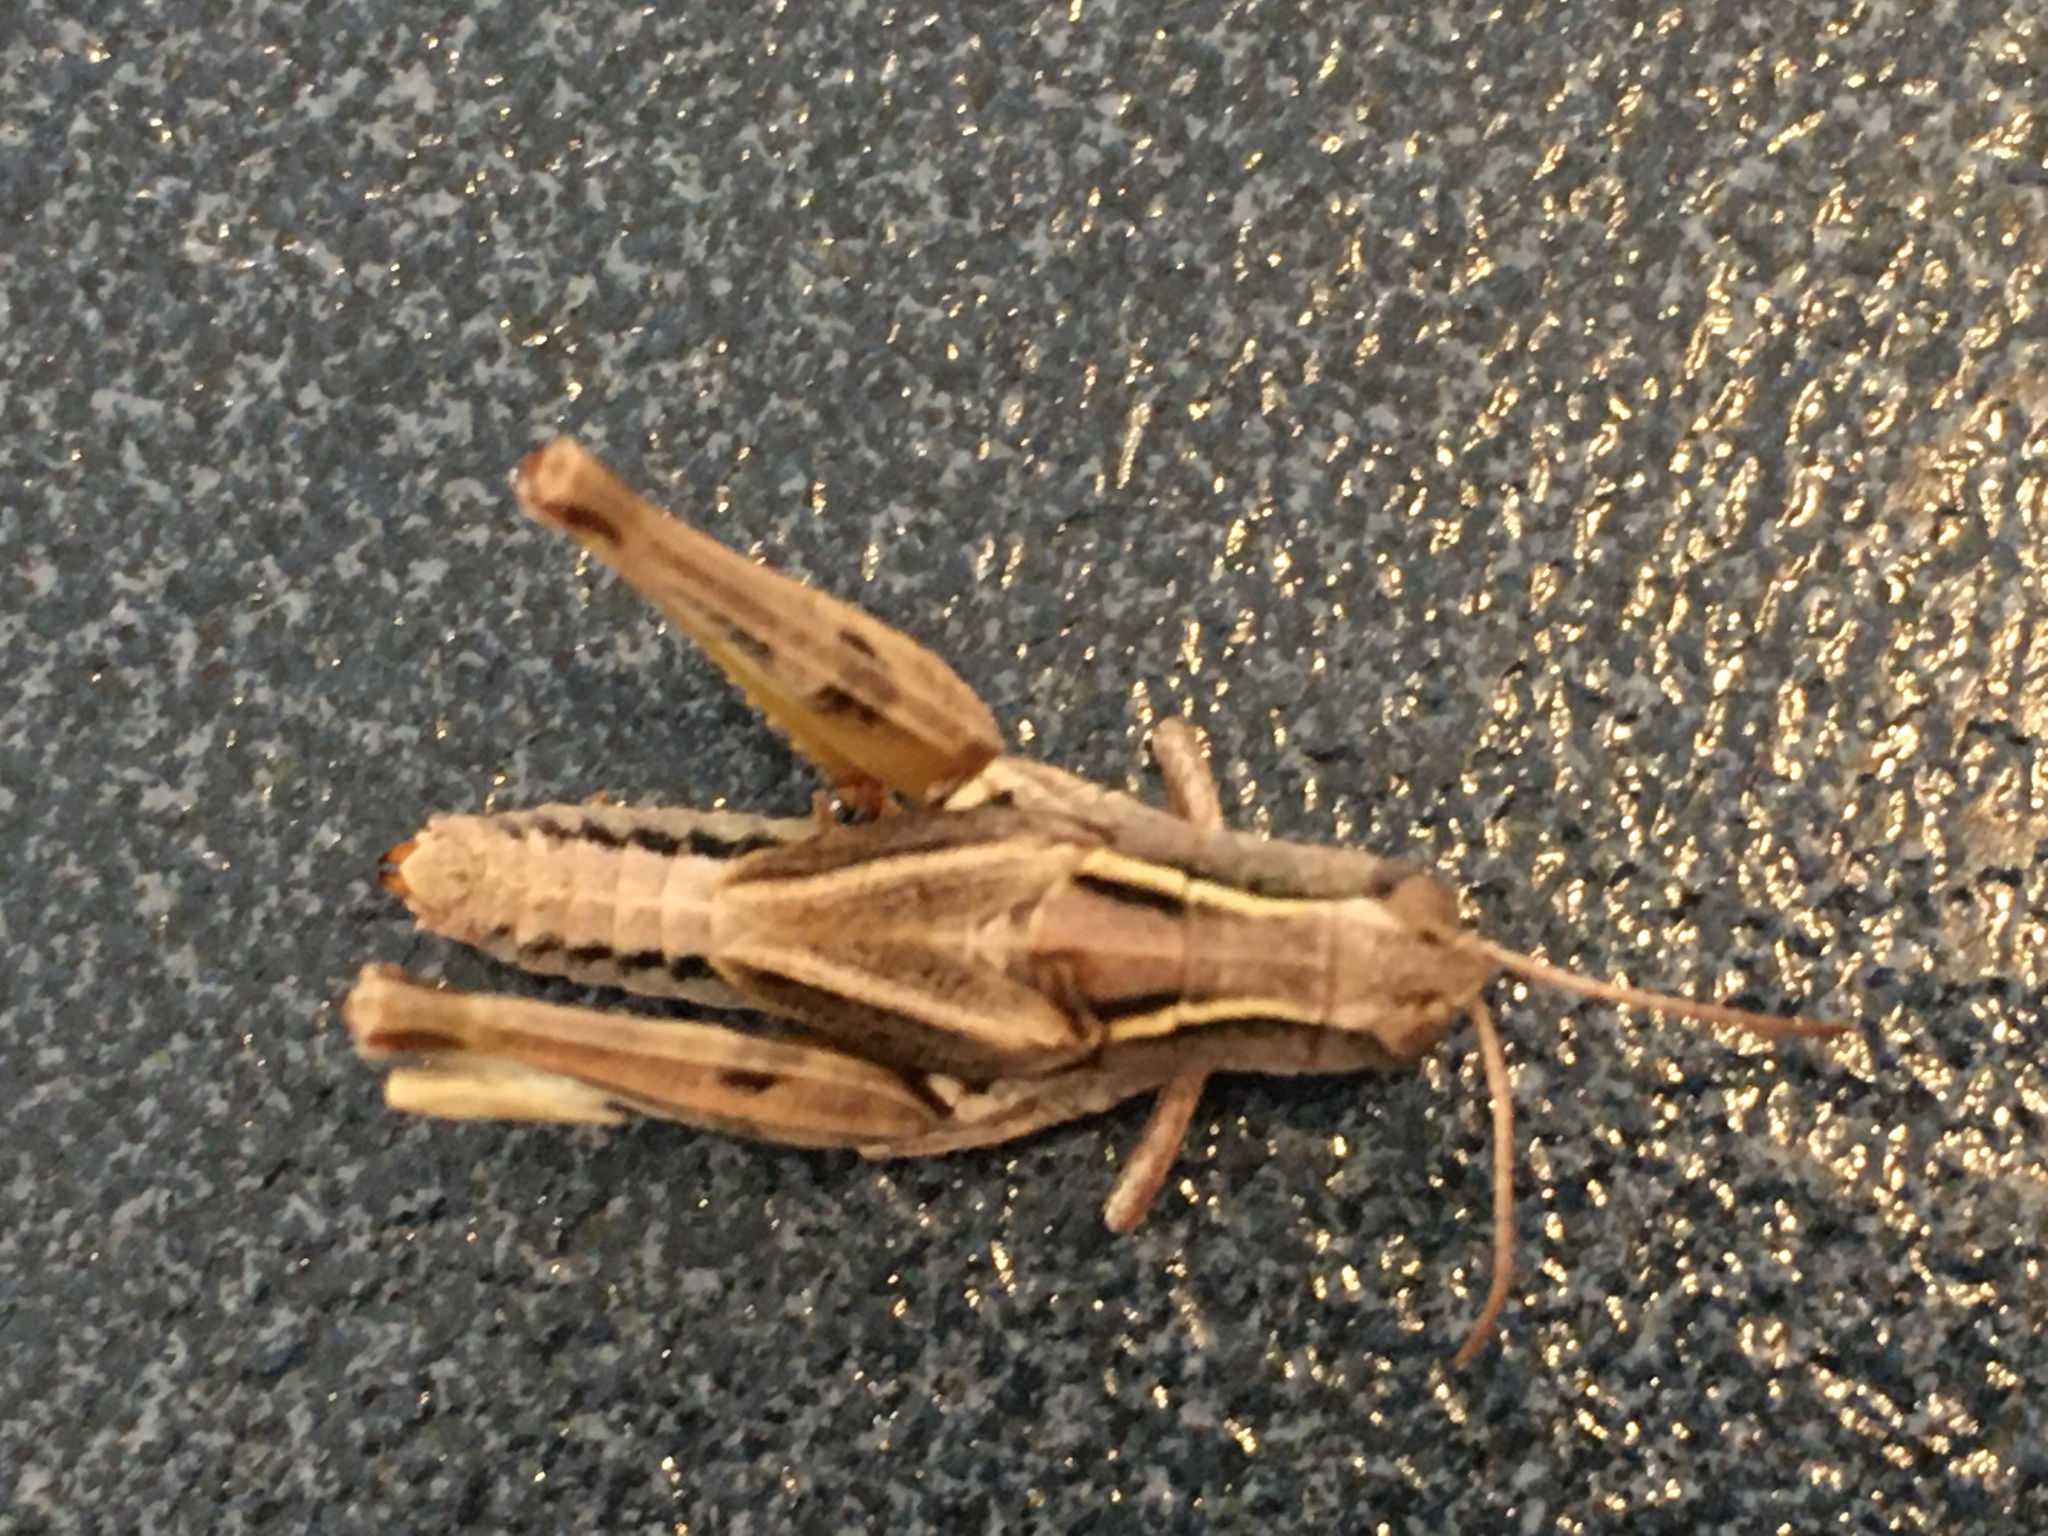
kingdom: Animalia
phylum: Arthropoda
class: Insecta
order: Orthoptera
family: Acrididae
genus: Phaulacridium
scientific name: Phaulacridium marginale
